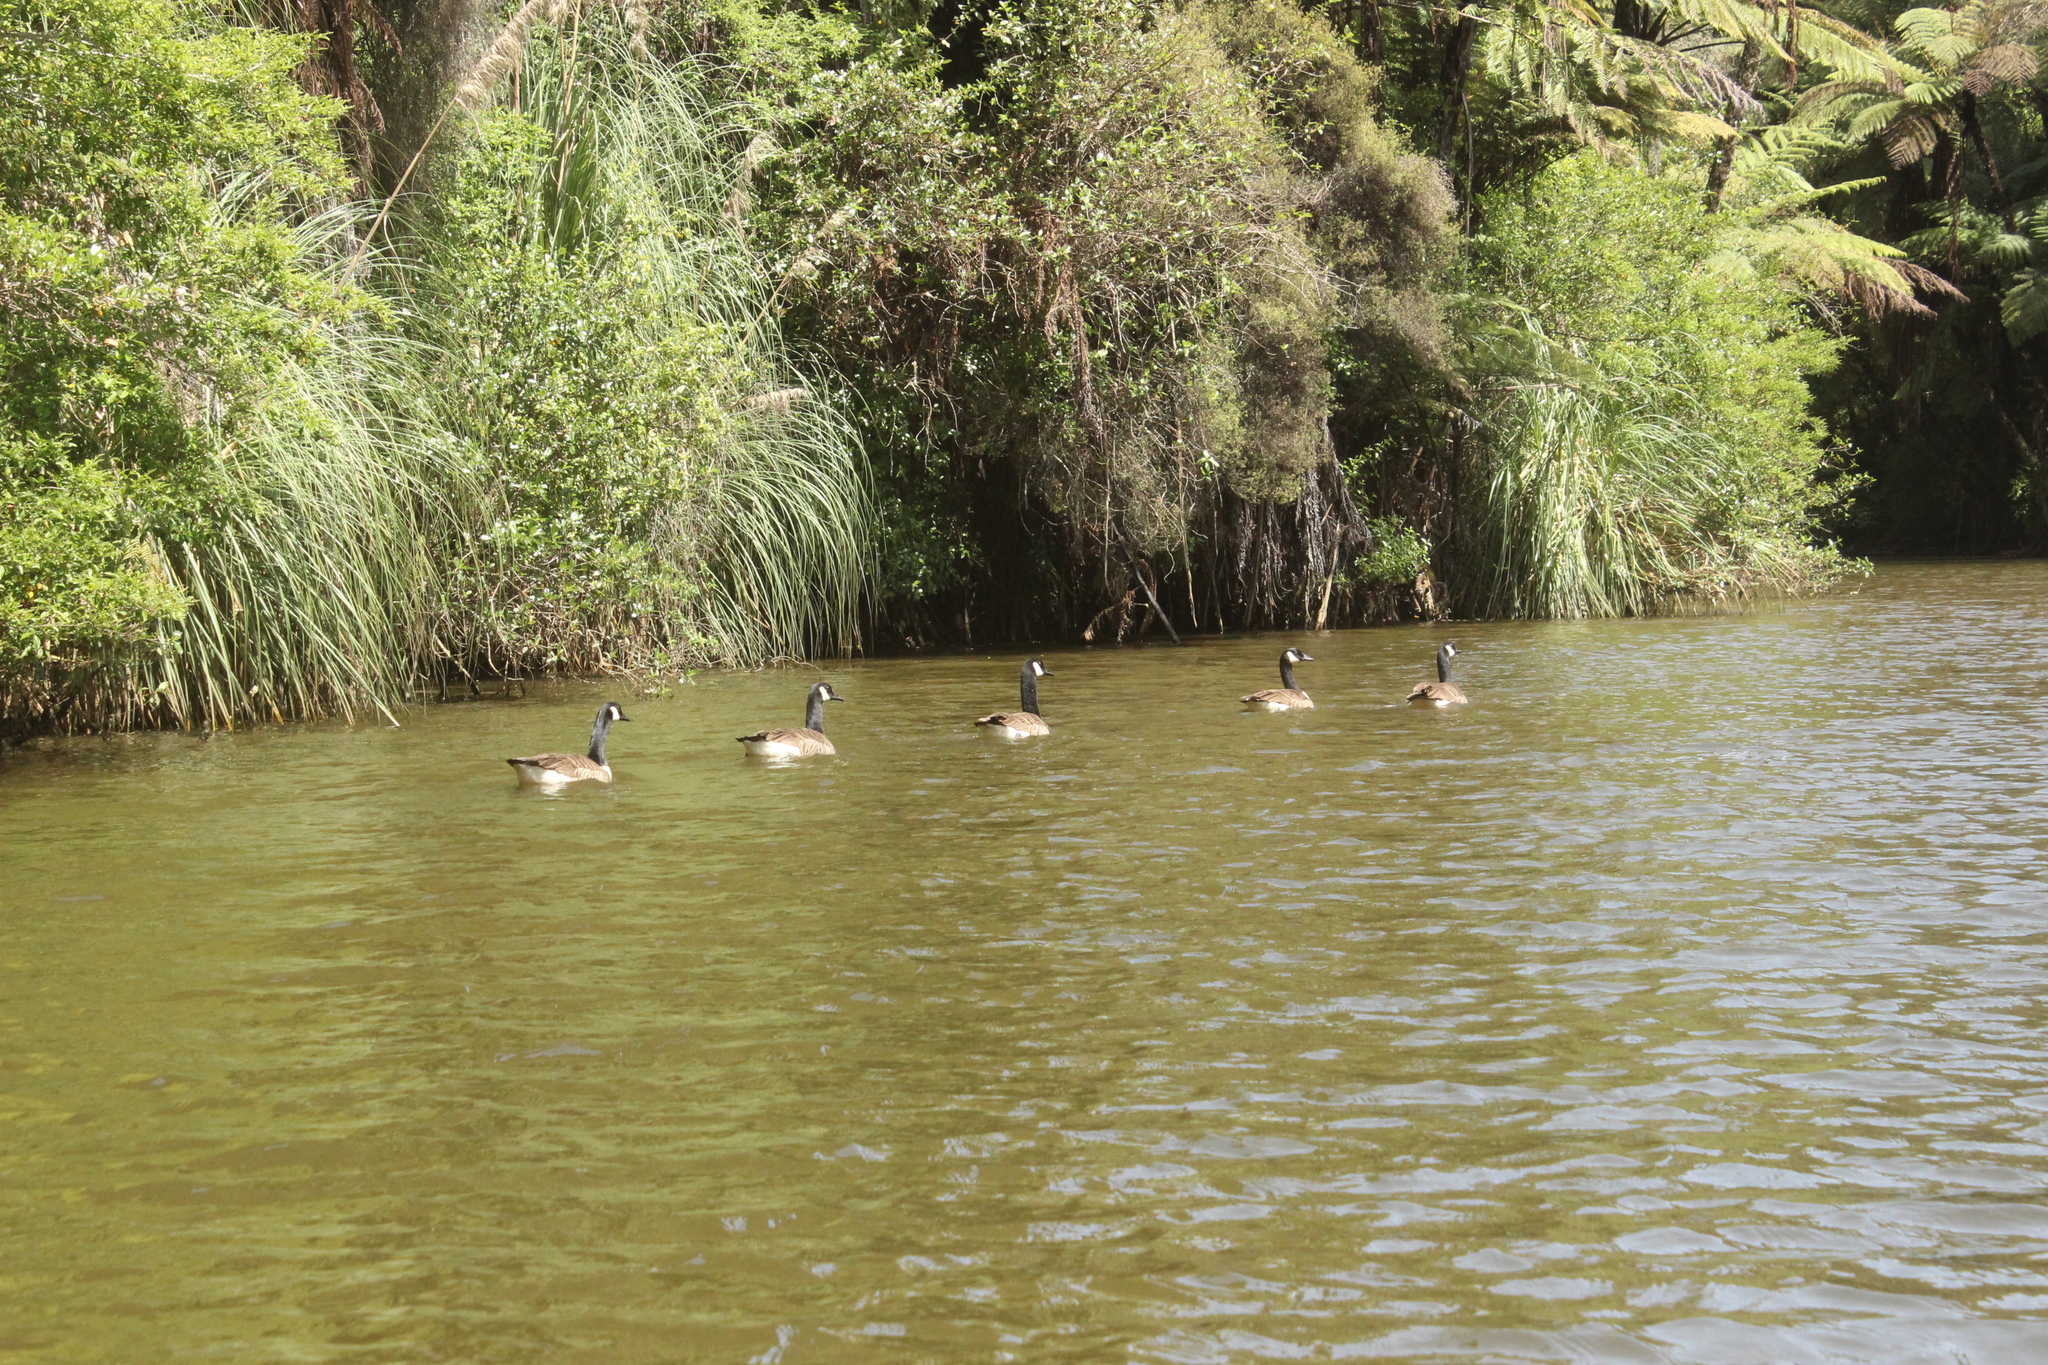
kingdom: Animalia
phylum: Chordata
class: Aves
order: Anseriformes
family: Anatidae
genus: Branta
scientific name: Branta canadensis
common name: Canada goose
